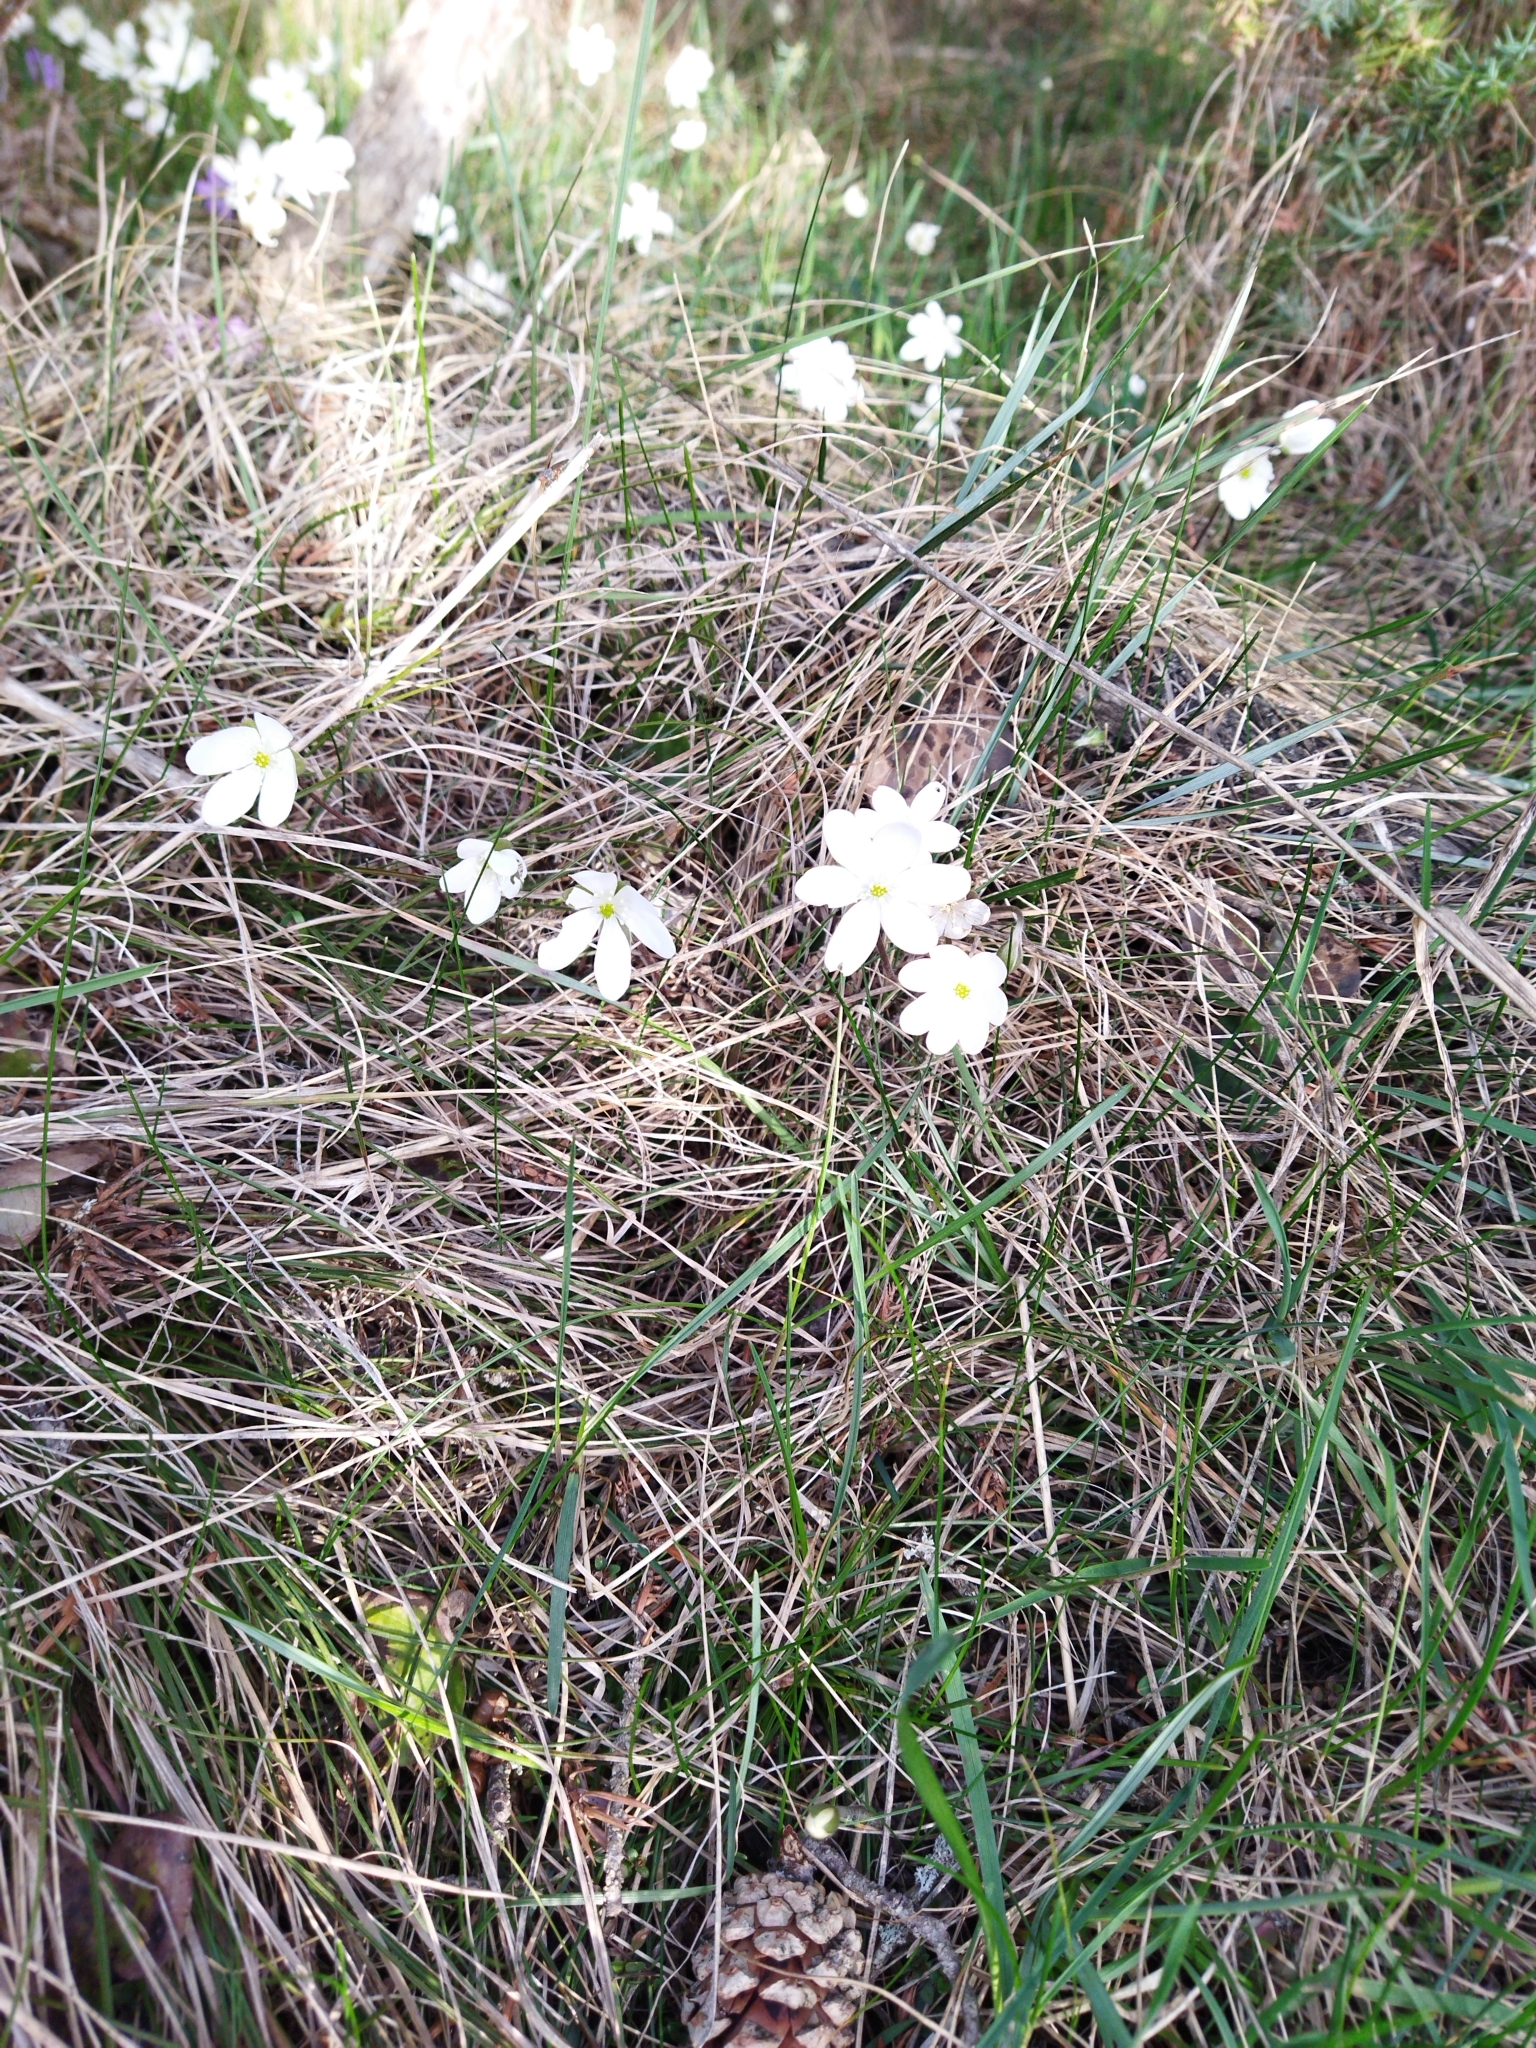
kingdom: Plantae
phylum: Tracheophyta
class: Magnoliopsida
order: Ranunculales
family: Ranunculaceae
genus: Hepatica
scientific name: Hepatica nobilis
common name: Liverleaf
